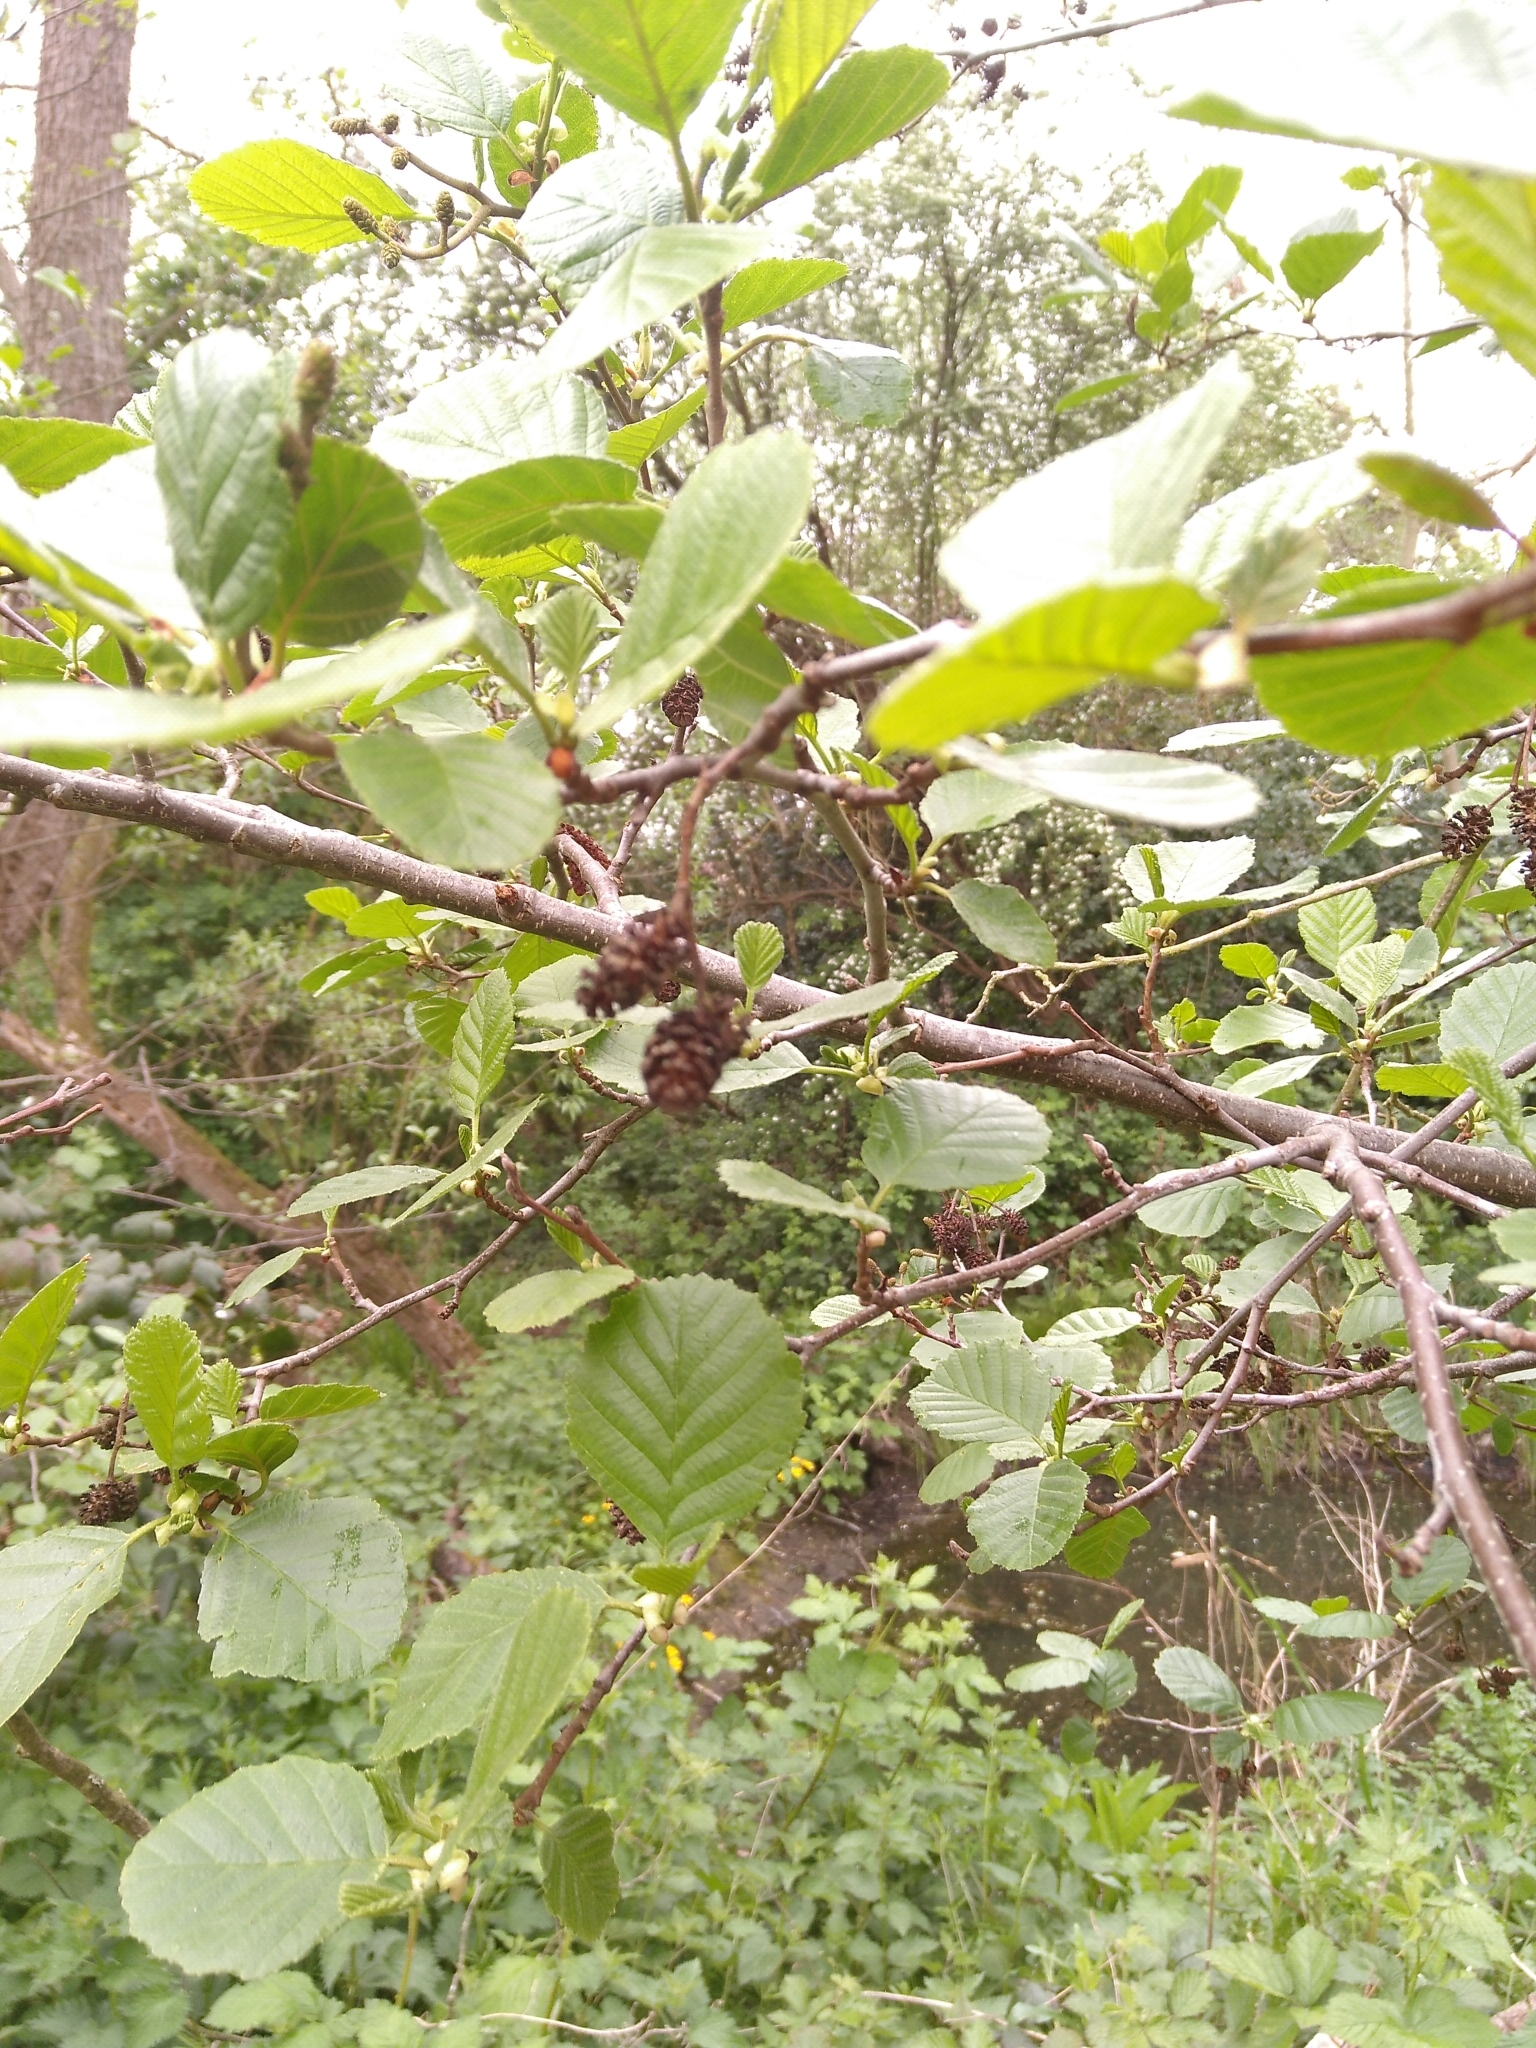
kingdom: Plantae
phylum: Tracheophyta
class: Magnoliopsida
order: Fagales
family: Betulaceae
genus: Alnus
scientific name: Alnus glutinosa
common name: Black alder
